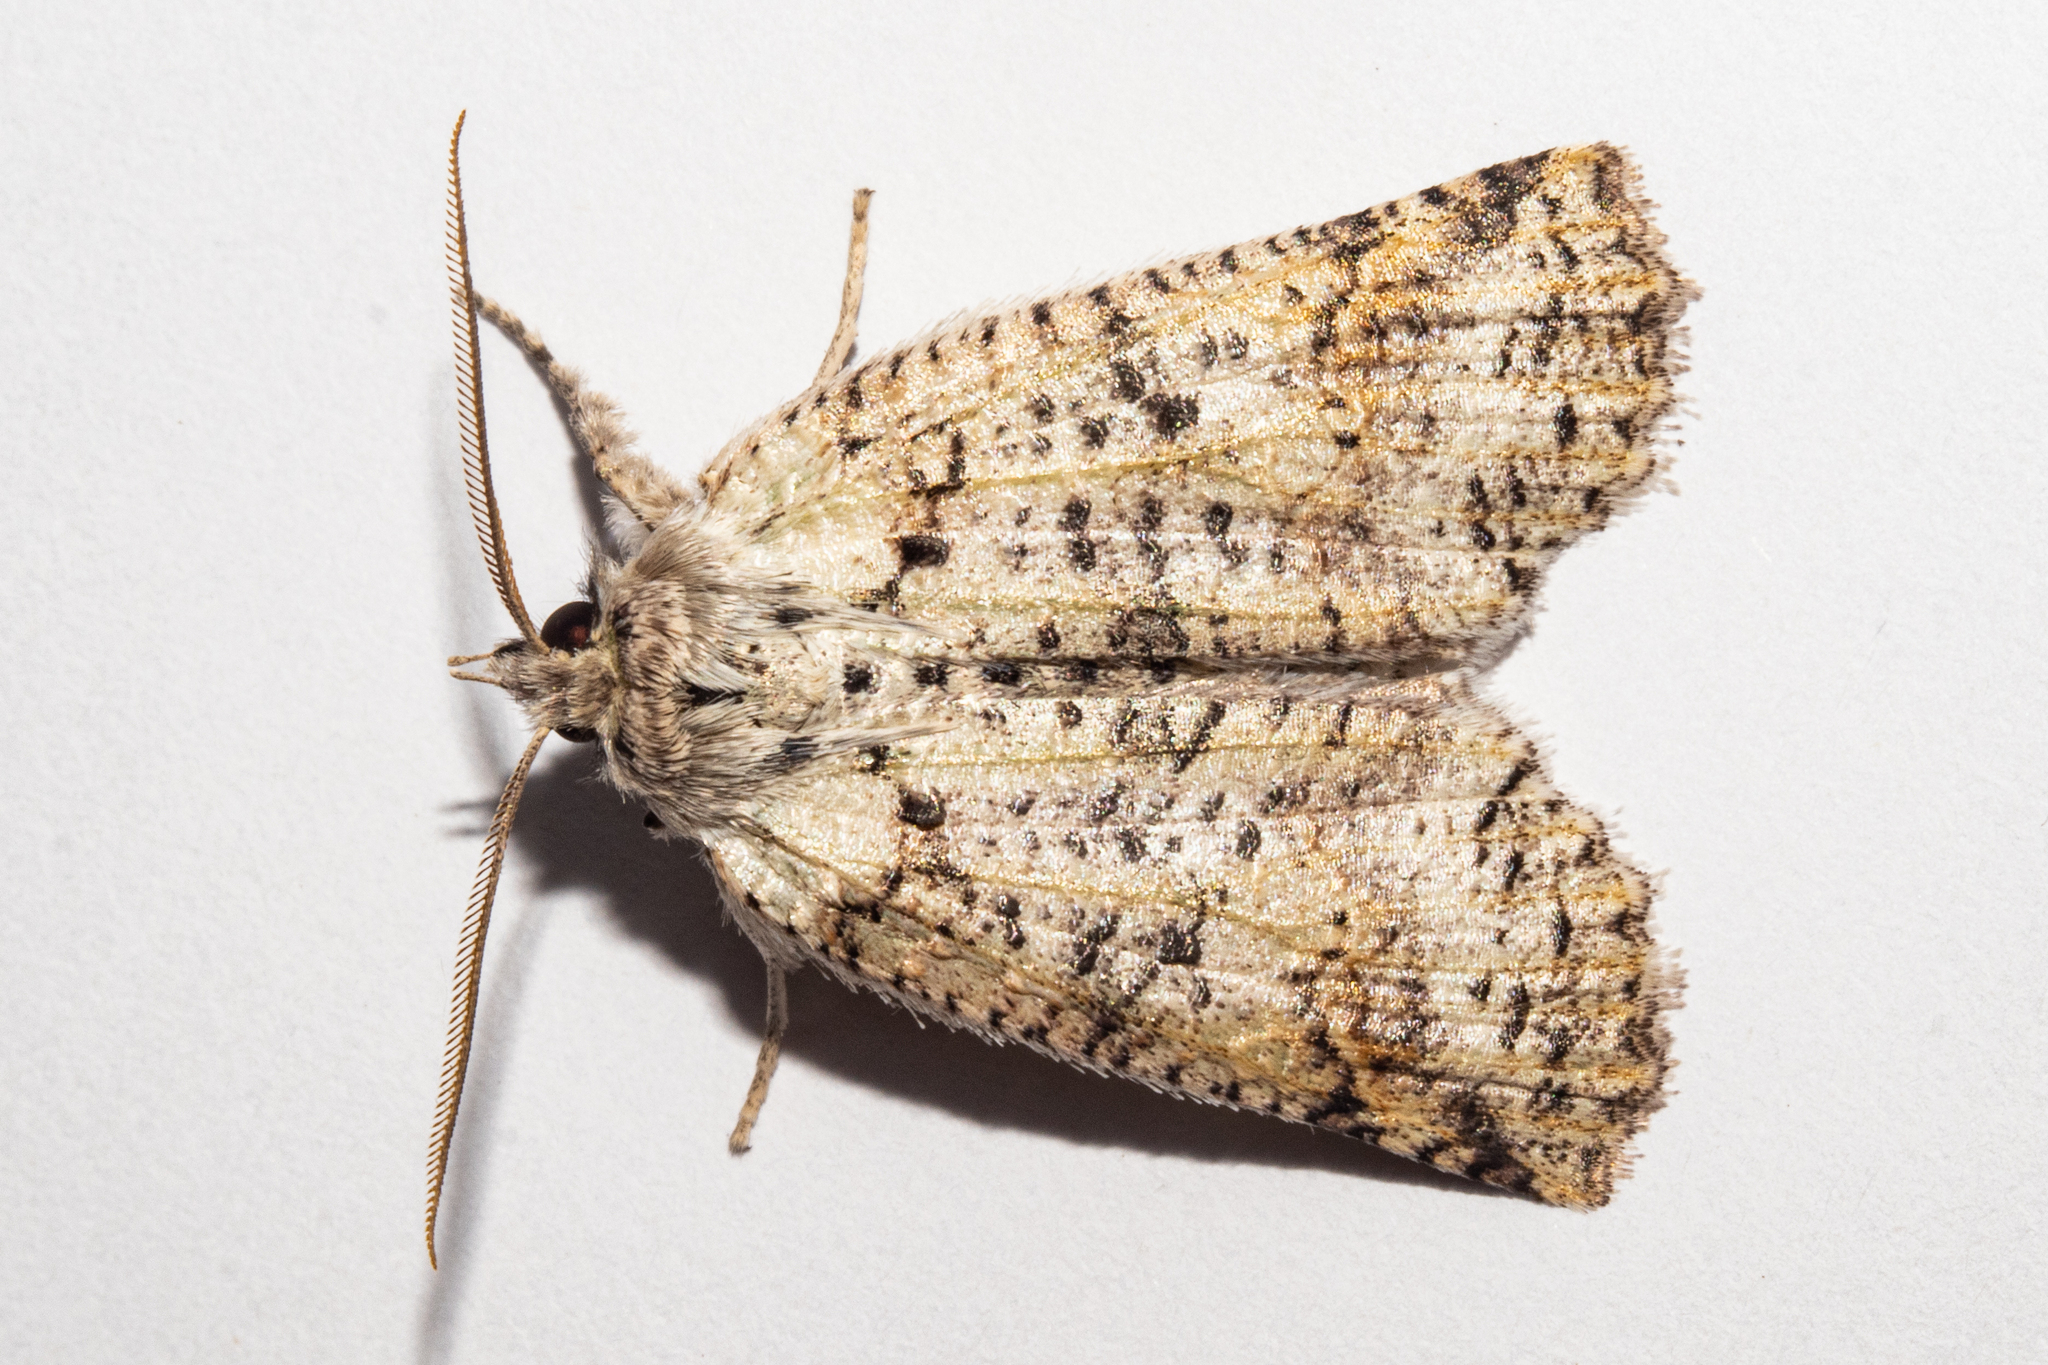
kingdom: Animalia
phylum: Arthropoda
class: Insecta
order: Lepidoptera
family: Geometridae
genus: Declana
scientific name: Declana floccosa
